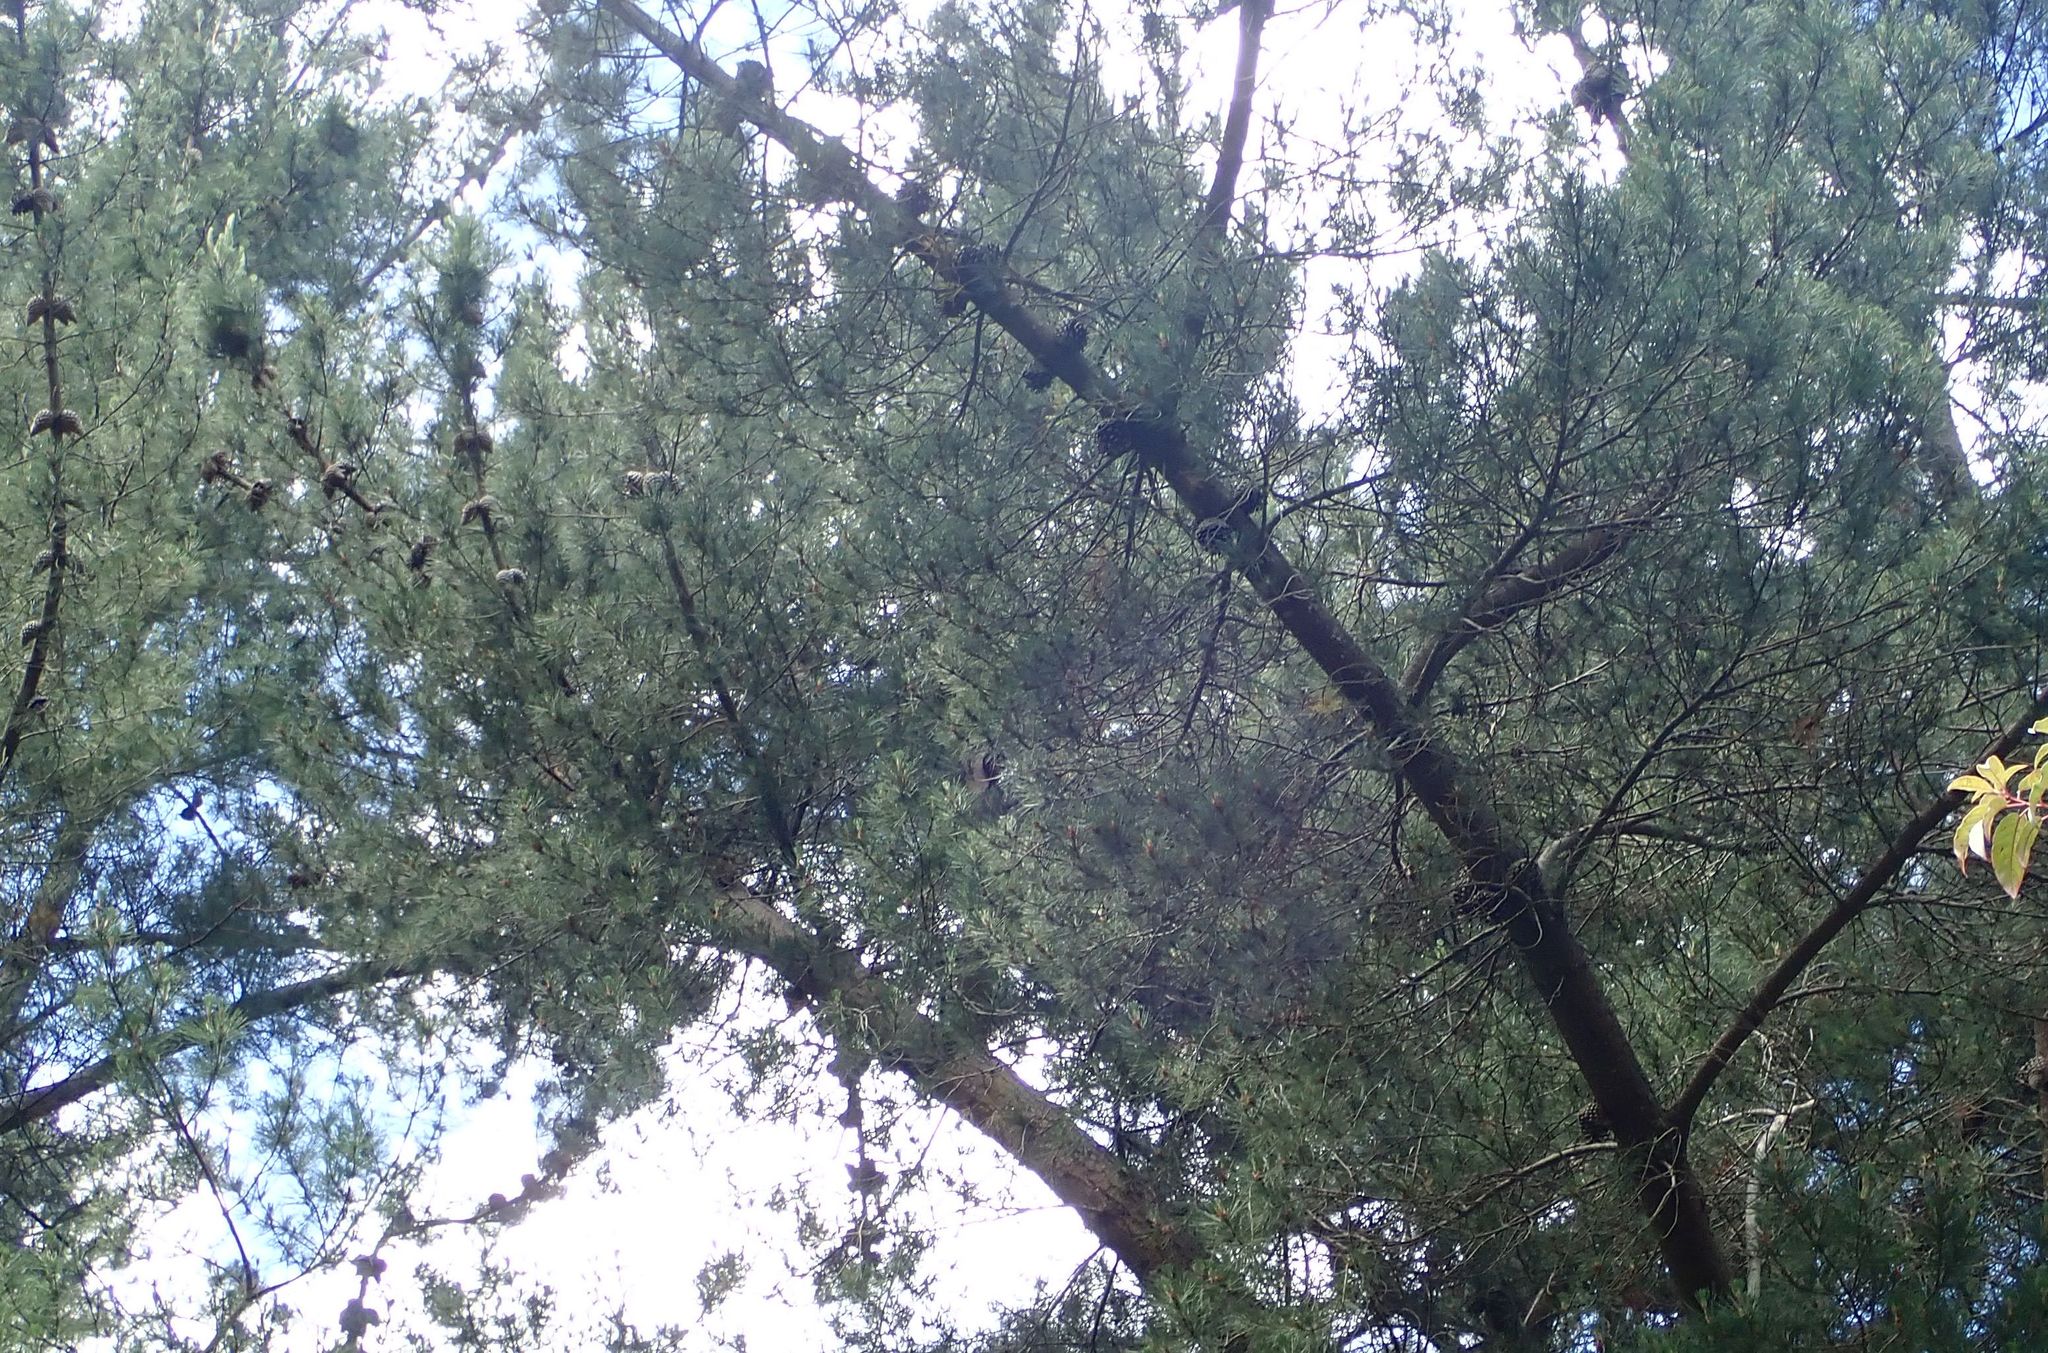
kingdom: Plantae
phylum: Tracheophyta
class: Pinopsida
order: Pinales
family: Pinaceae
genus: Pinus
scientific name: Pinus radiata
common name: Monterey pine
